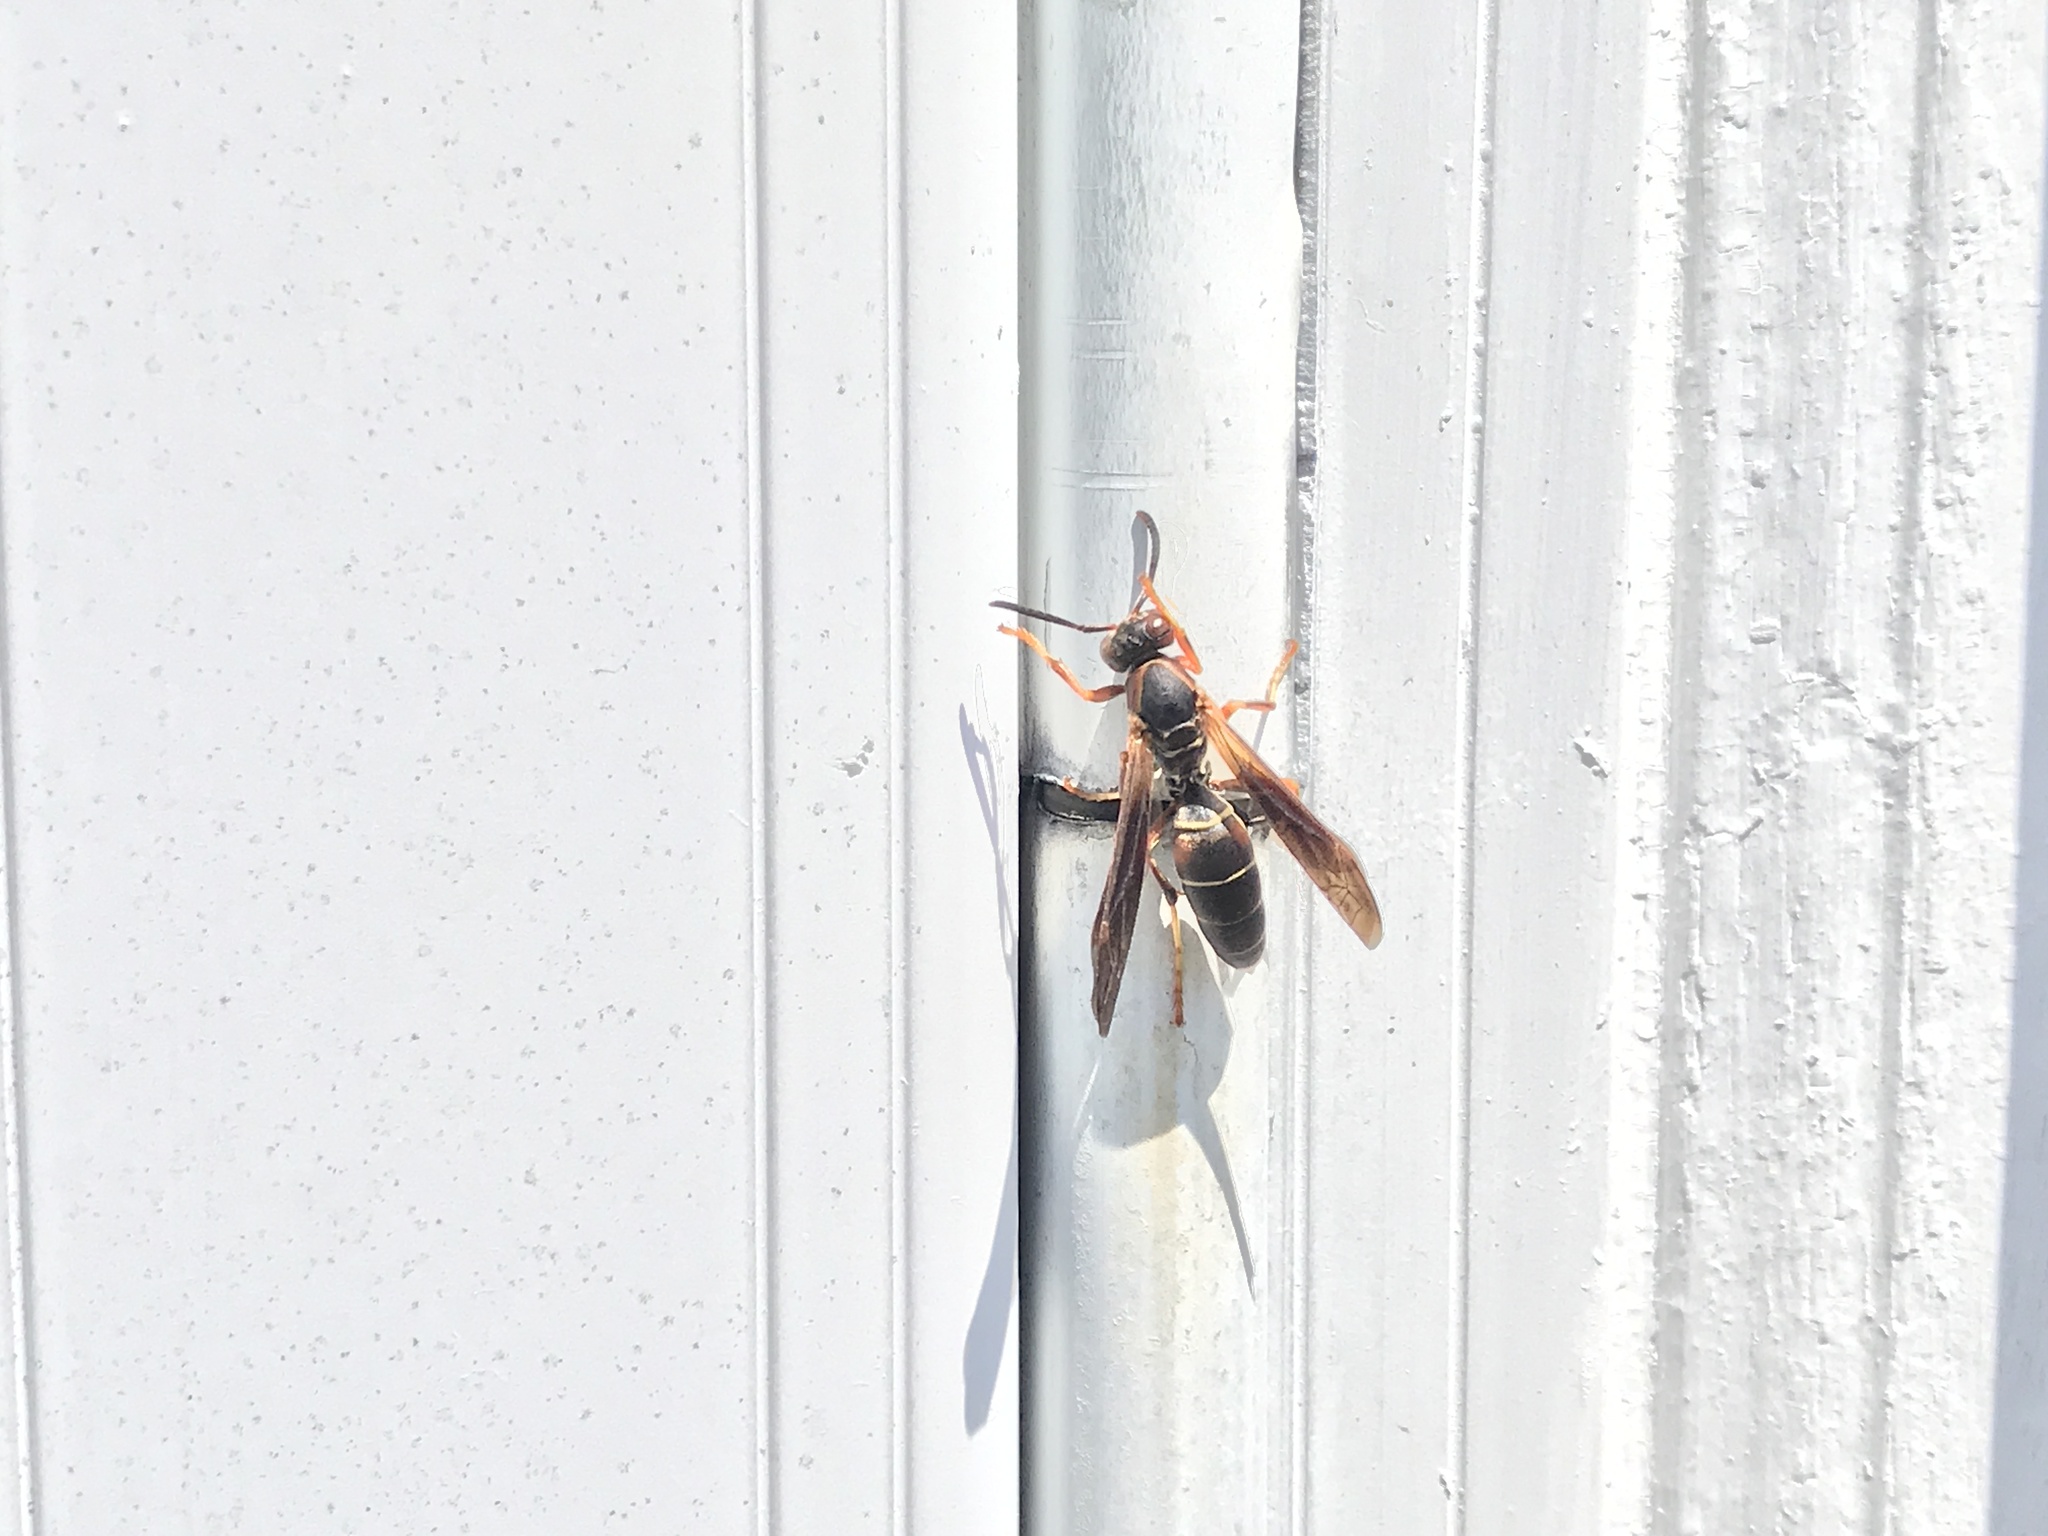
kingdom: Animalia
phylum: Arthropoda
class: Insecta
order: Hymenoptera
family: Eumenidae
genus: Polistes
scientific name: Polistes fuscatus
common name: Dark paper wasp
